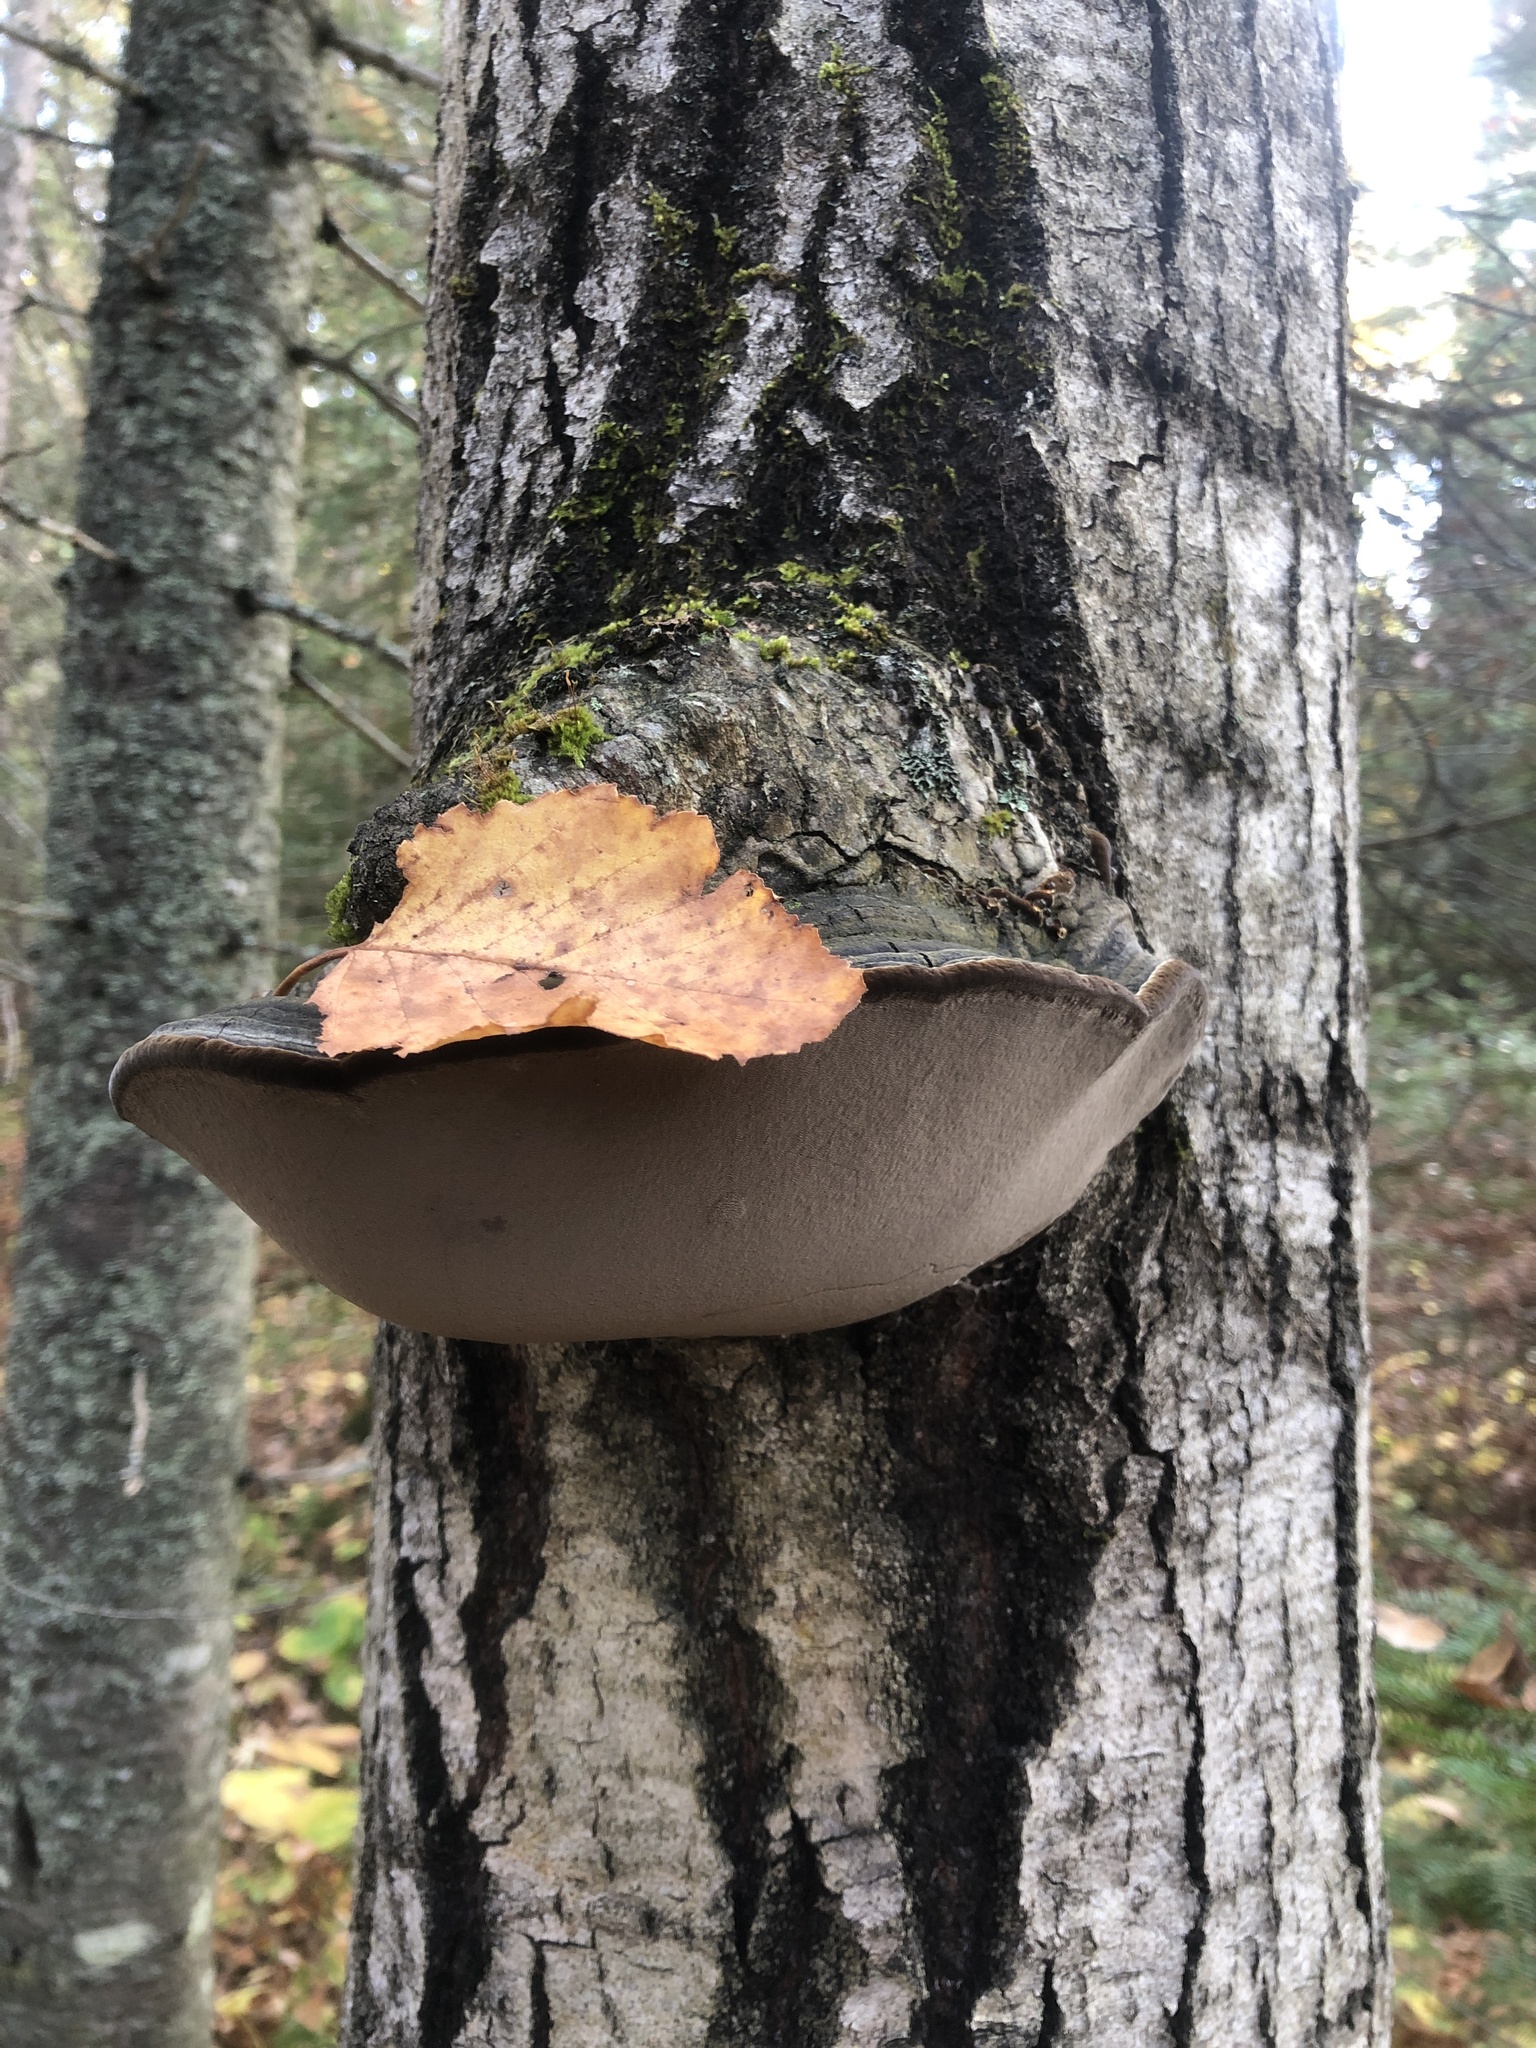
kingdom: Fungi
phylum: Basidiomycota
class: Agaricomycetes
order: Hymenochaetales
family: Hymenochaetaceae
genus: Phellinus
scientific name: Phellinus tremulae
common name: Aspen bracket
